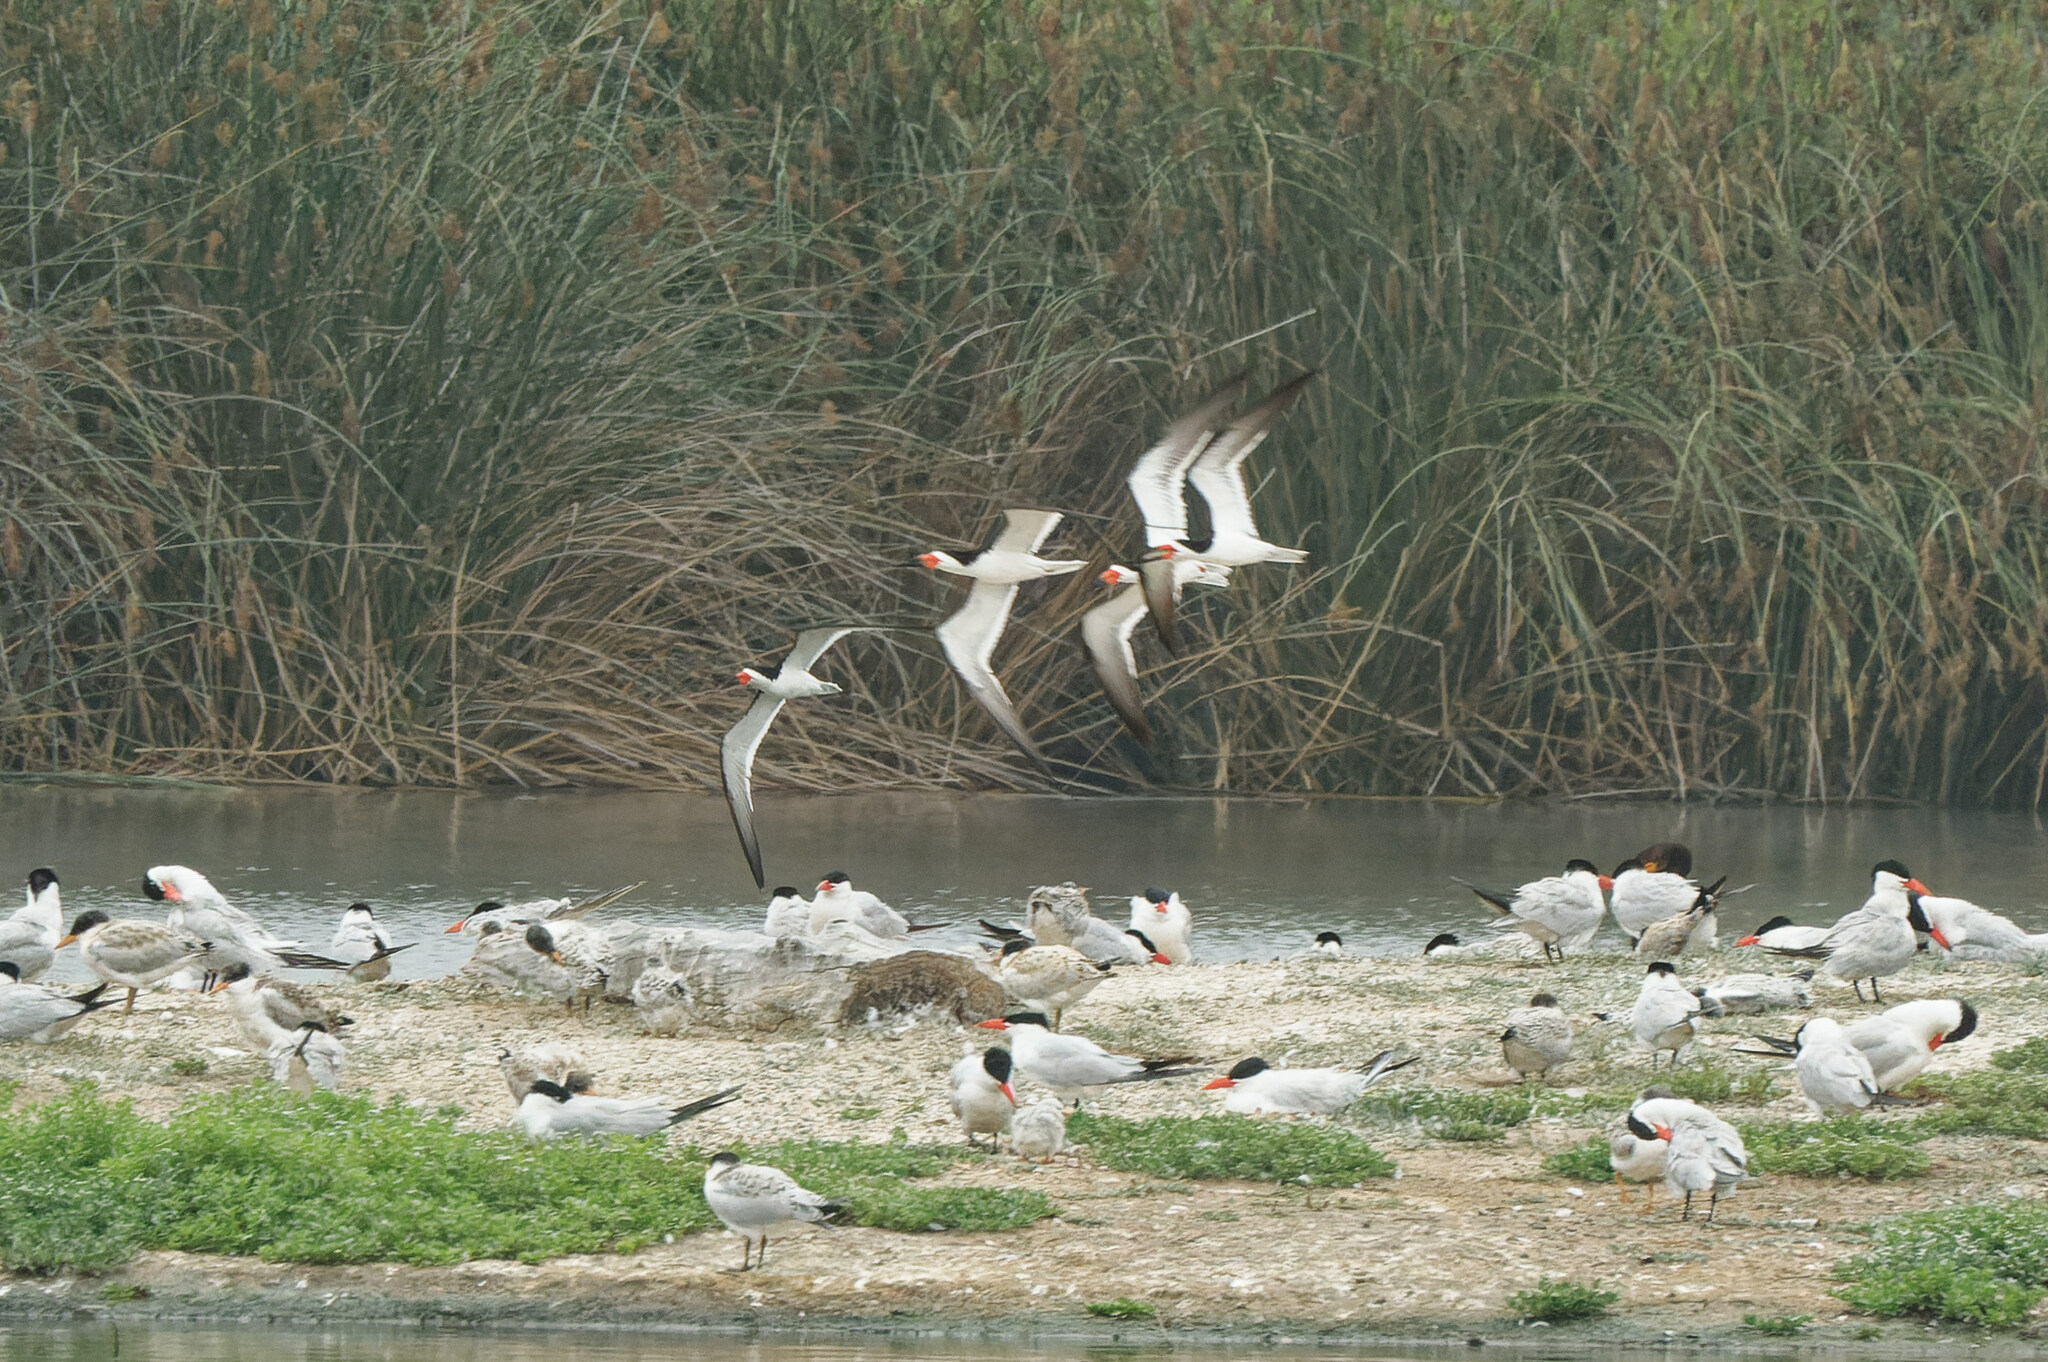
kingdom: Animalia
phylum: Chordata
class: Aves
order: Charadriiformes
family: Laridae
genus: Rynchops
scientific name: Rynchops niger
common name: Black skimmer
